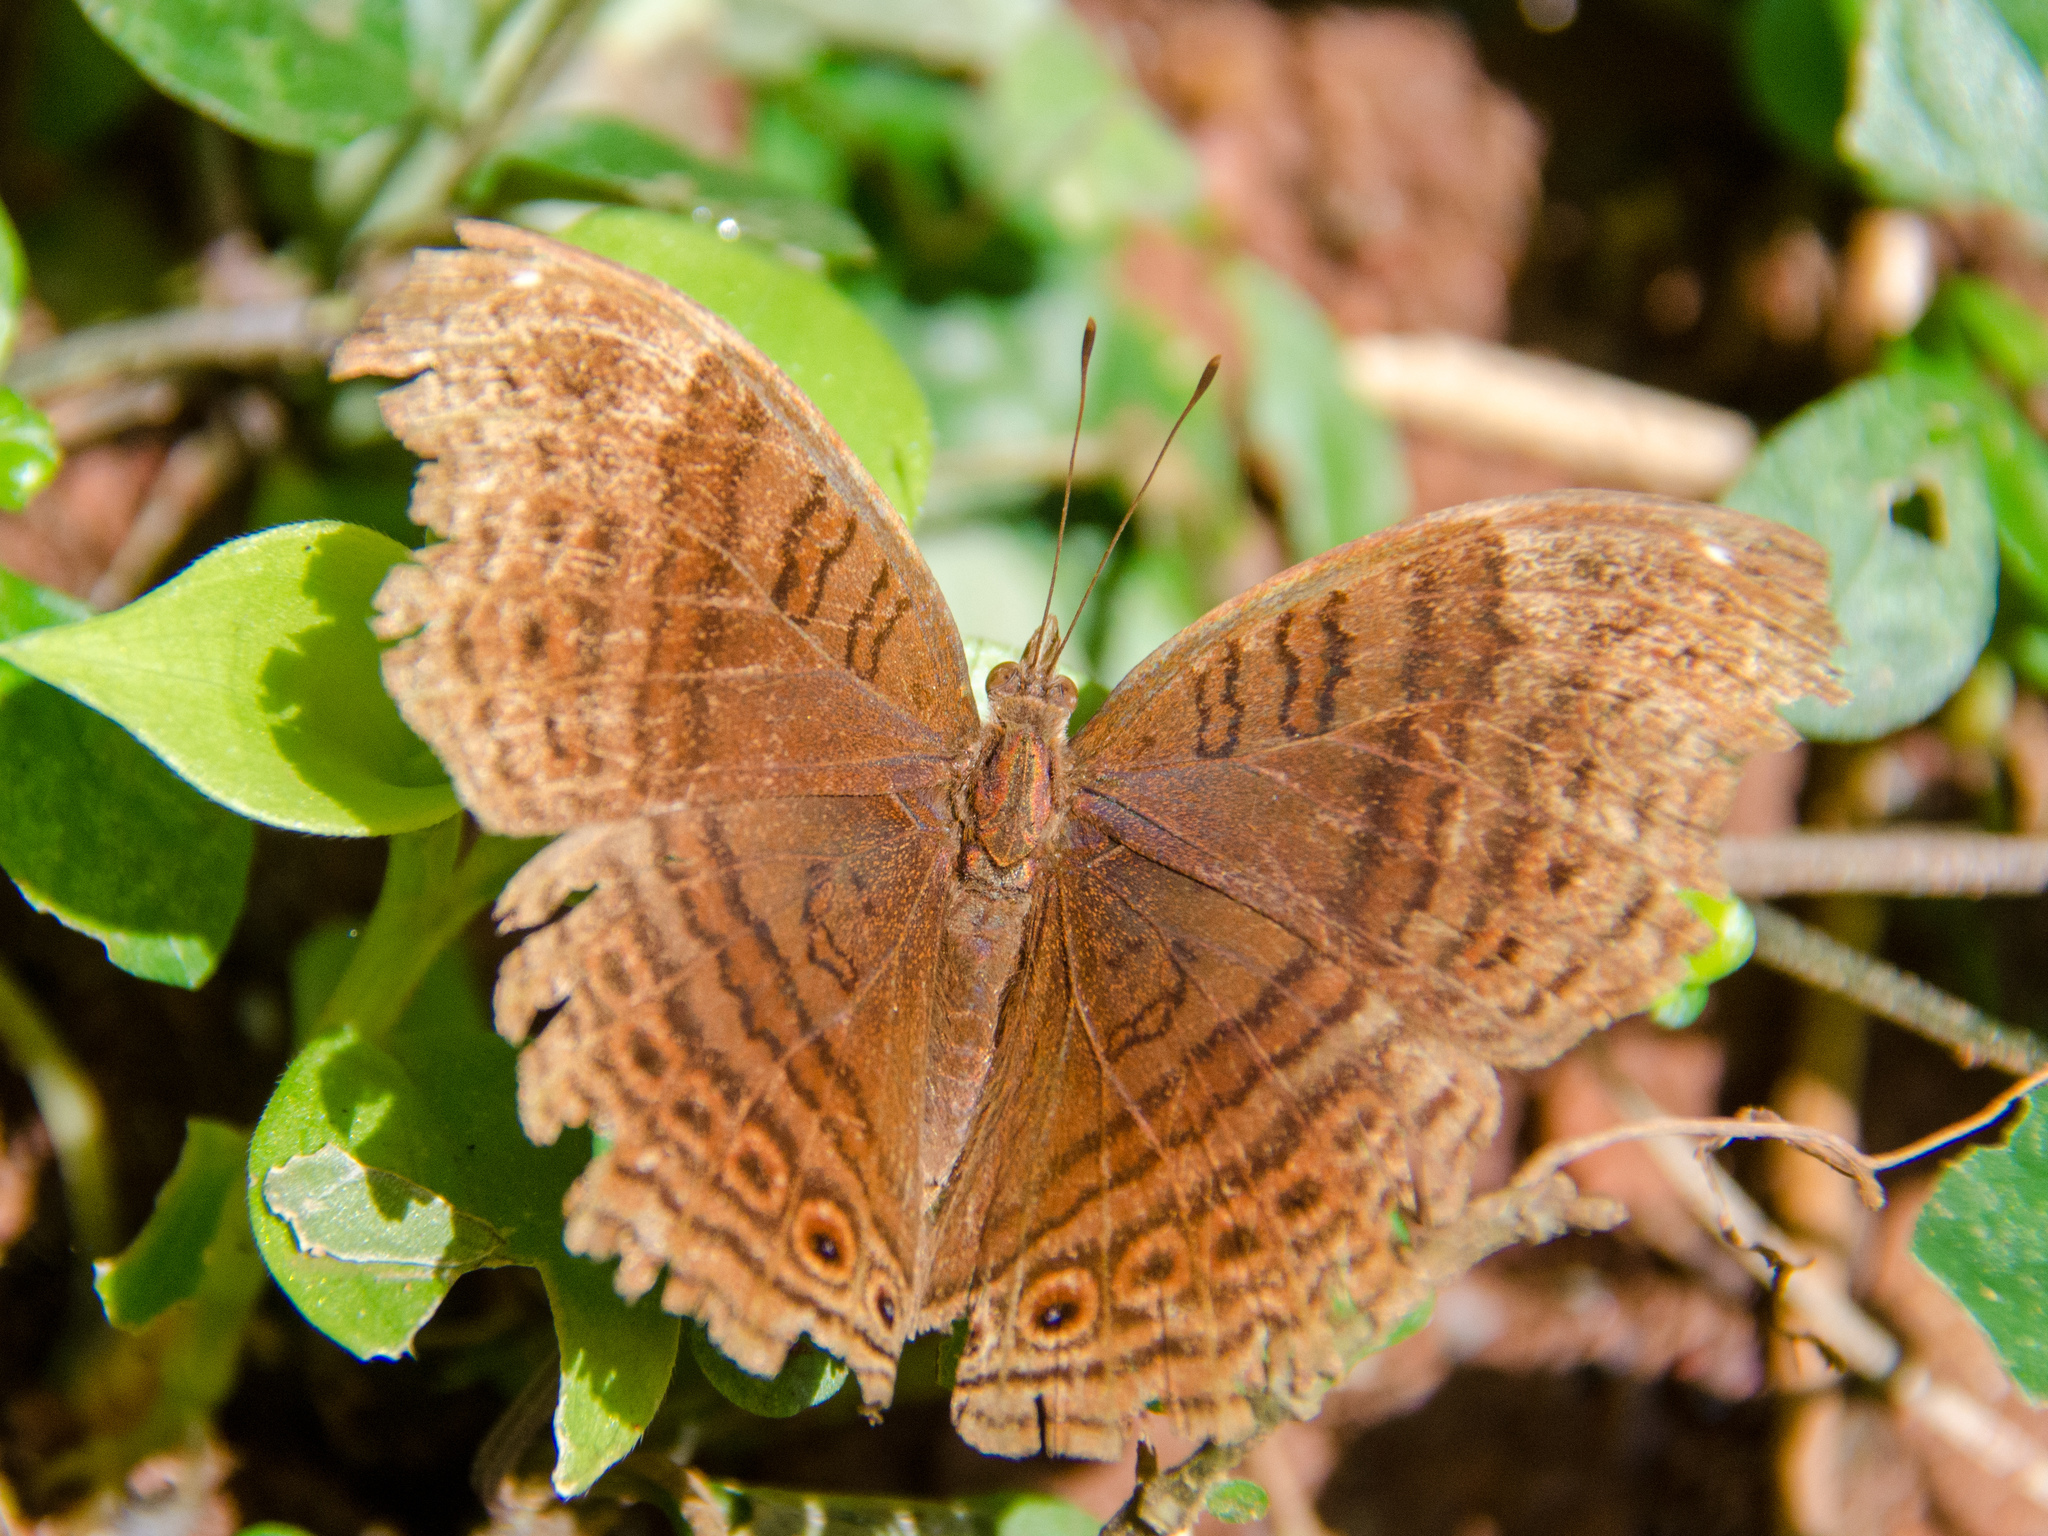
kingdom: Animalia
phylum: Arthropoda
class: Insecta
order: Lepidoptera
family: Nymphalidae
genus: Junonia
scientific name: Junonia stygia
